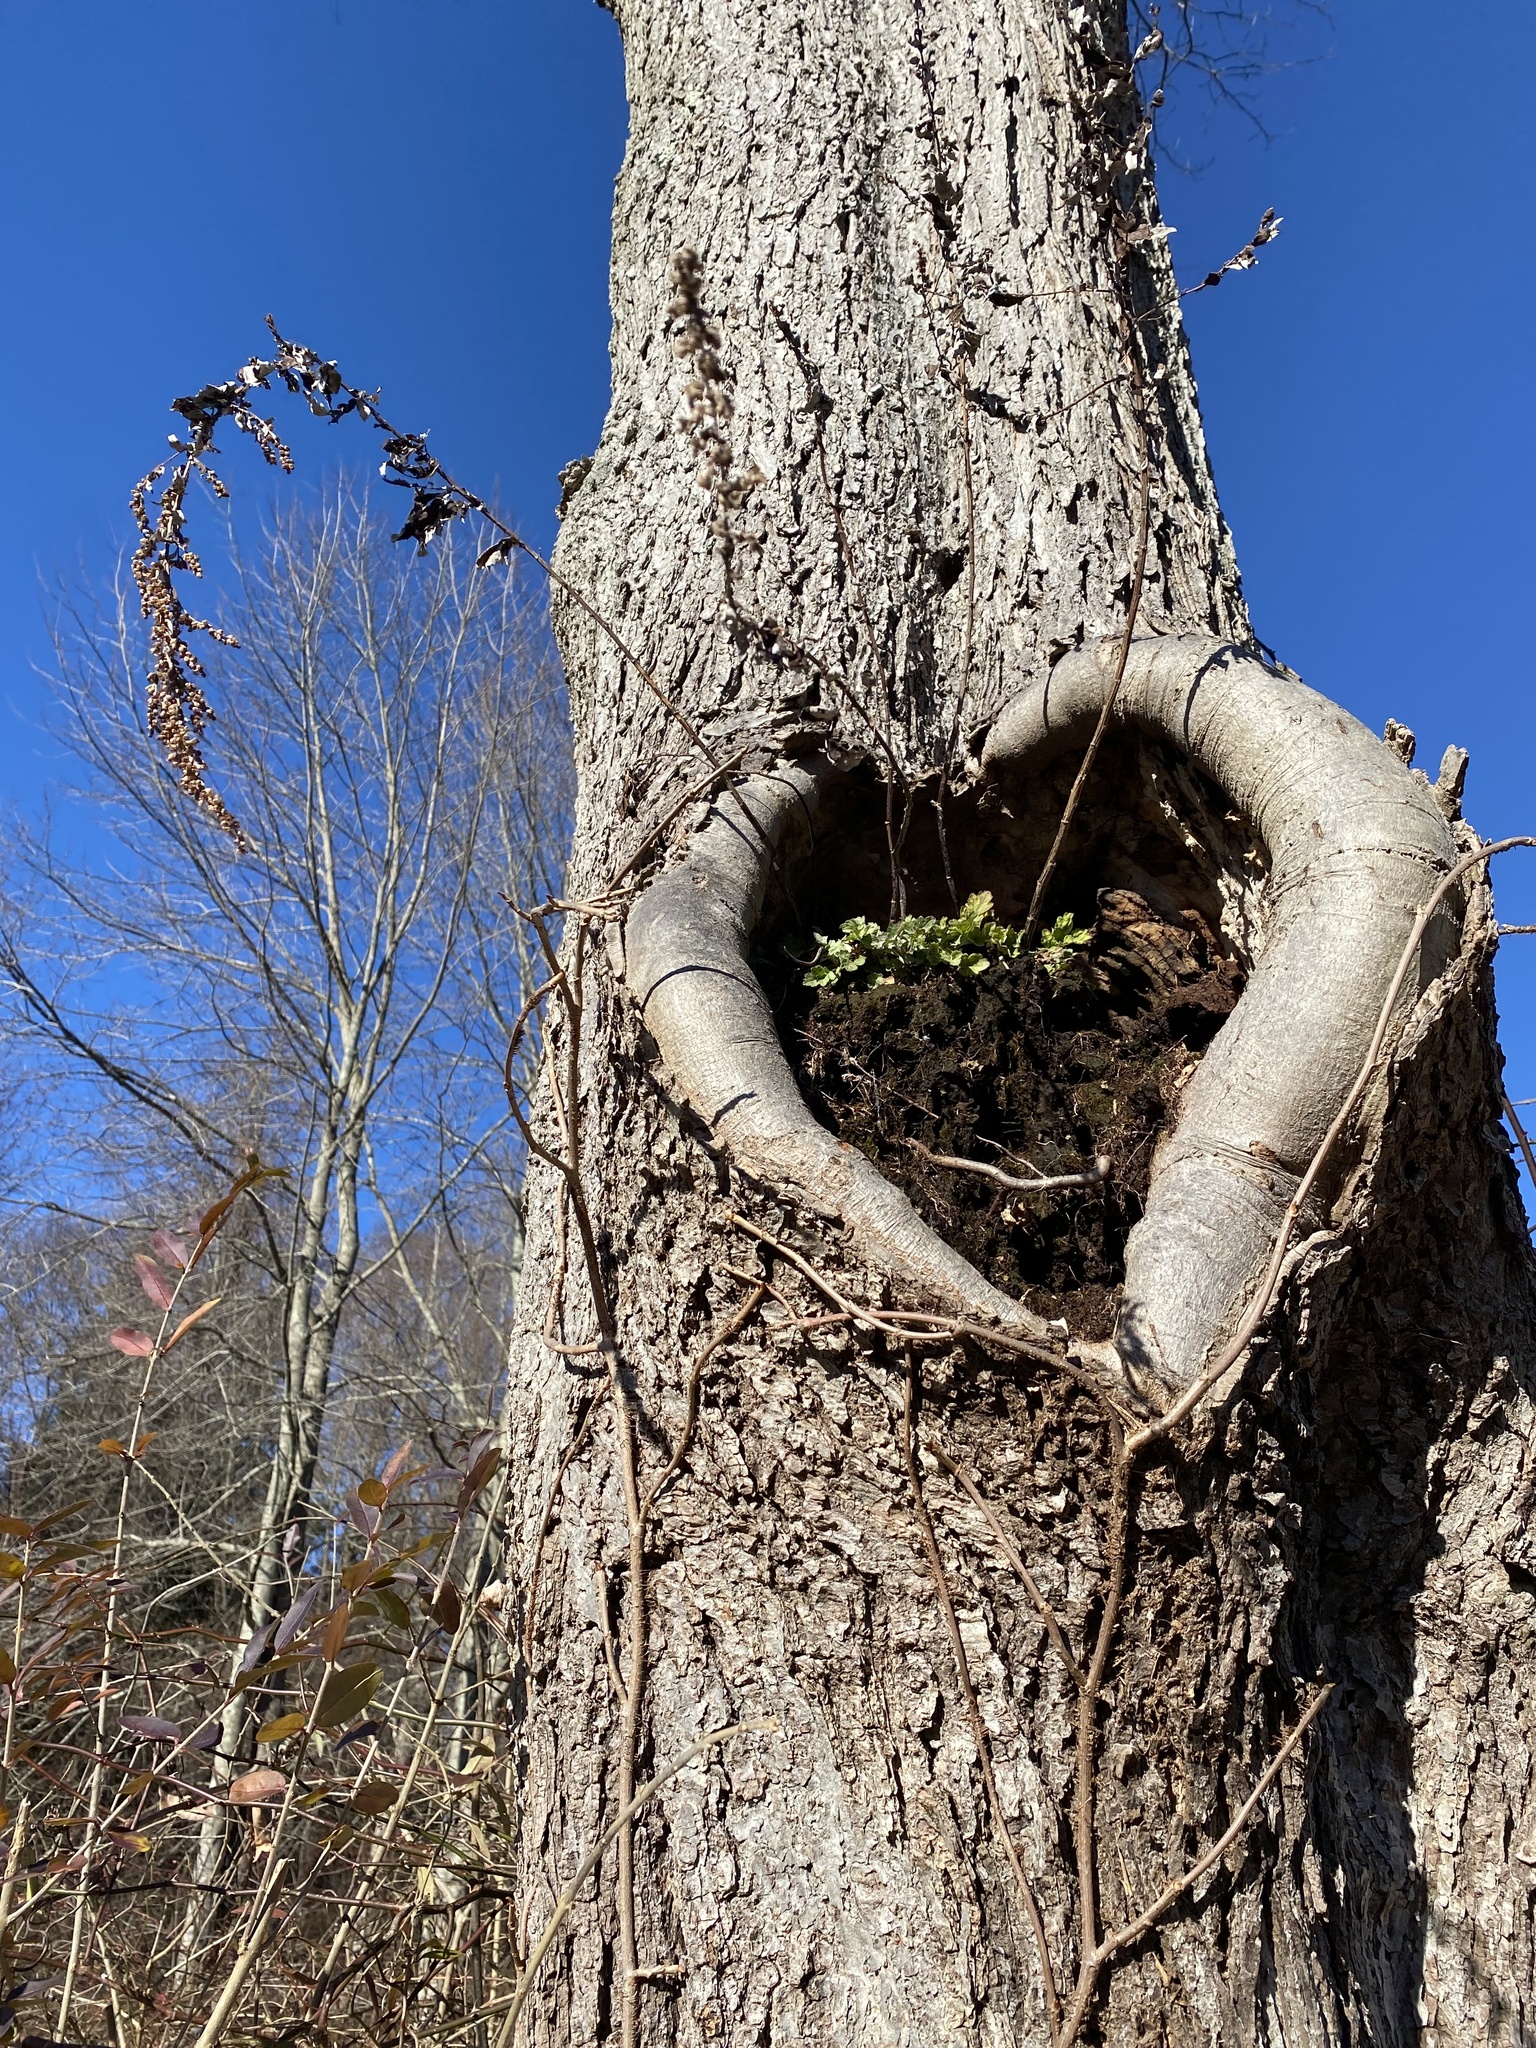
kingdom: Plantae
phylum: Tracheophyta
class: Magnoliopsida
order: Asterales
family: Asteraceae
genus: Artemisia
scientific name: Artemisia vulgaris
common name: Mugwort
